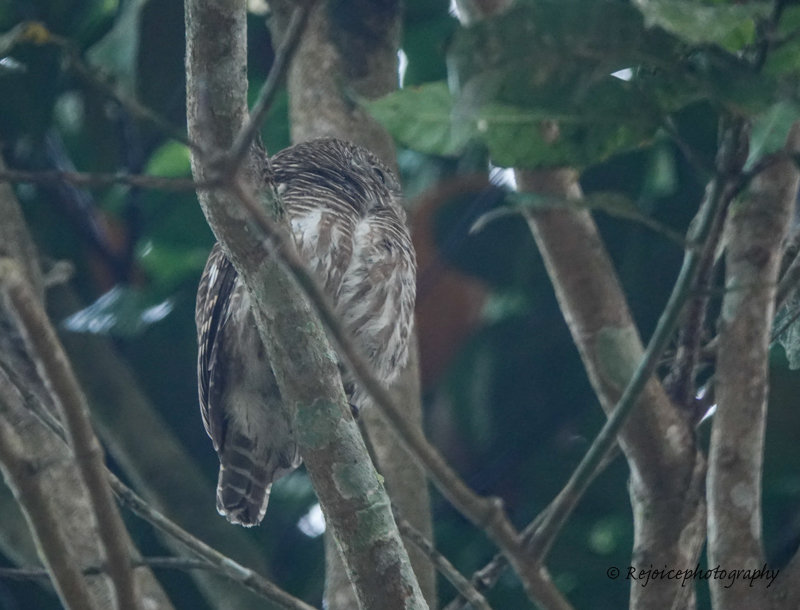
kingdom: Animalia
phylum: Chordata
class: Aves
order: Strigiformes
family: Strigidae
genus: Glaucidium
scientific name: Glaucidium cuculoides
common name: Asian barred owlet
